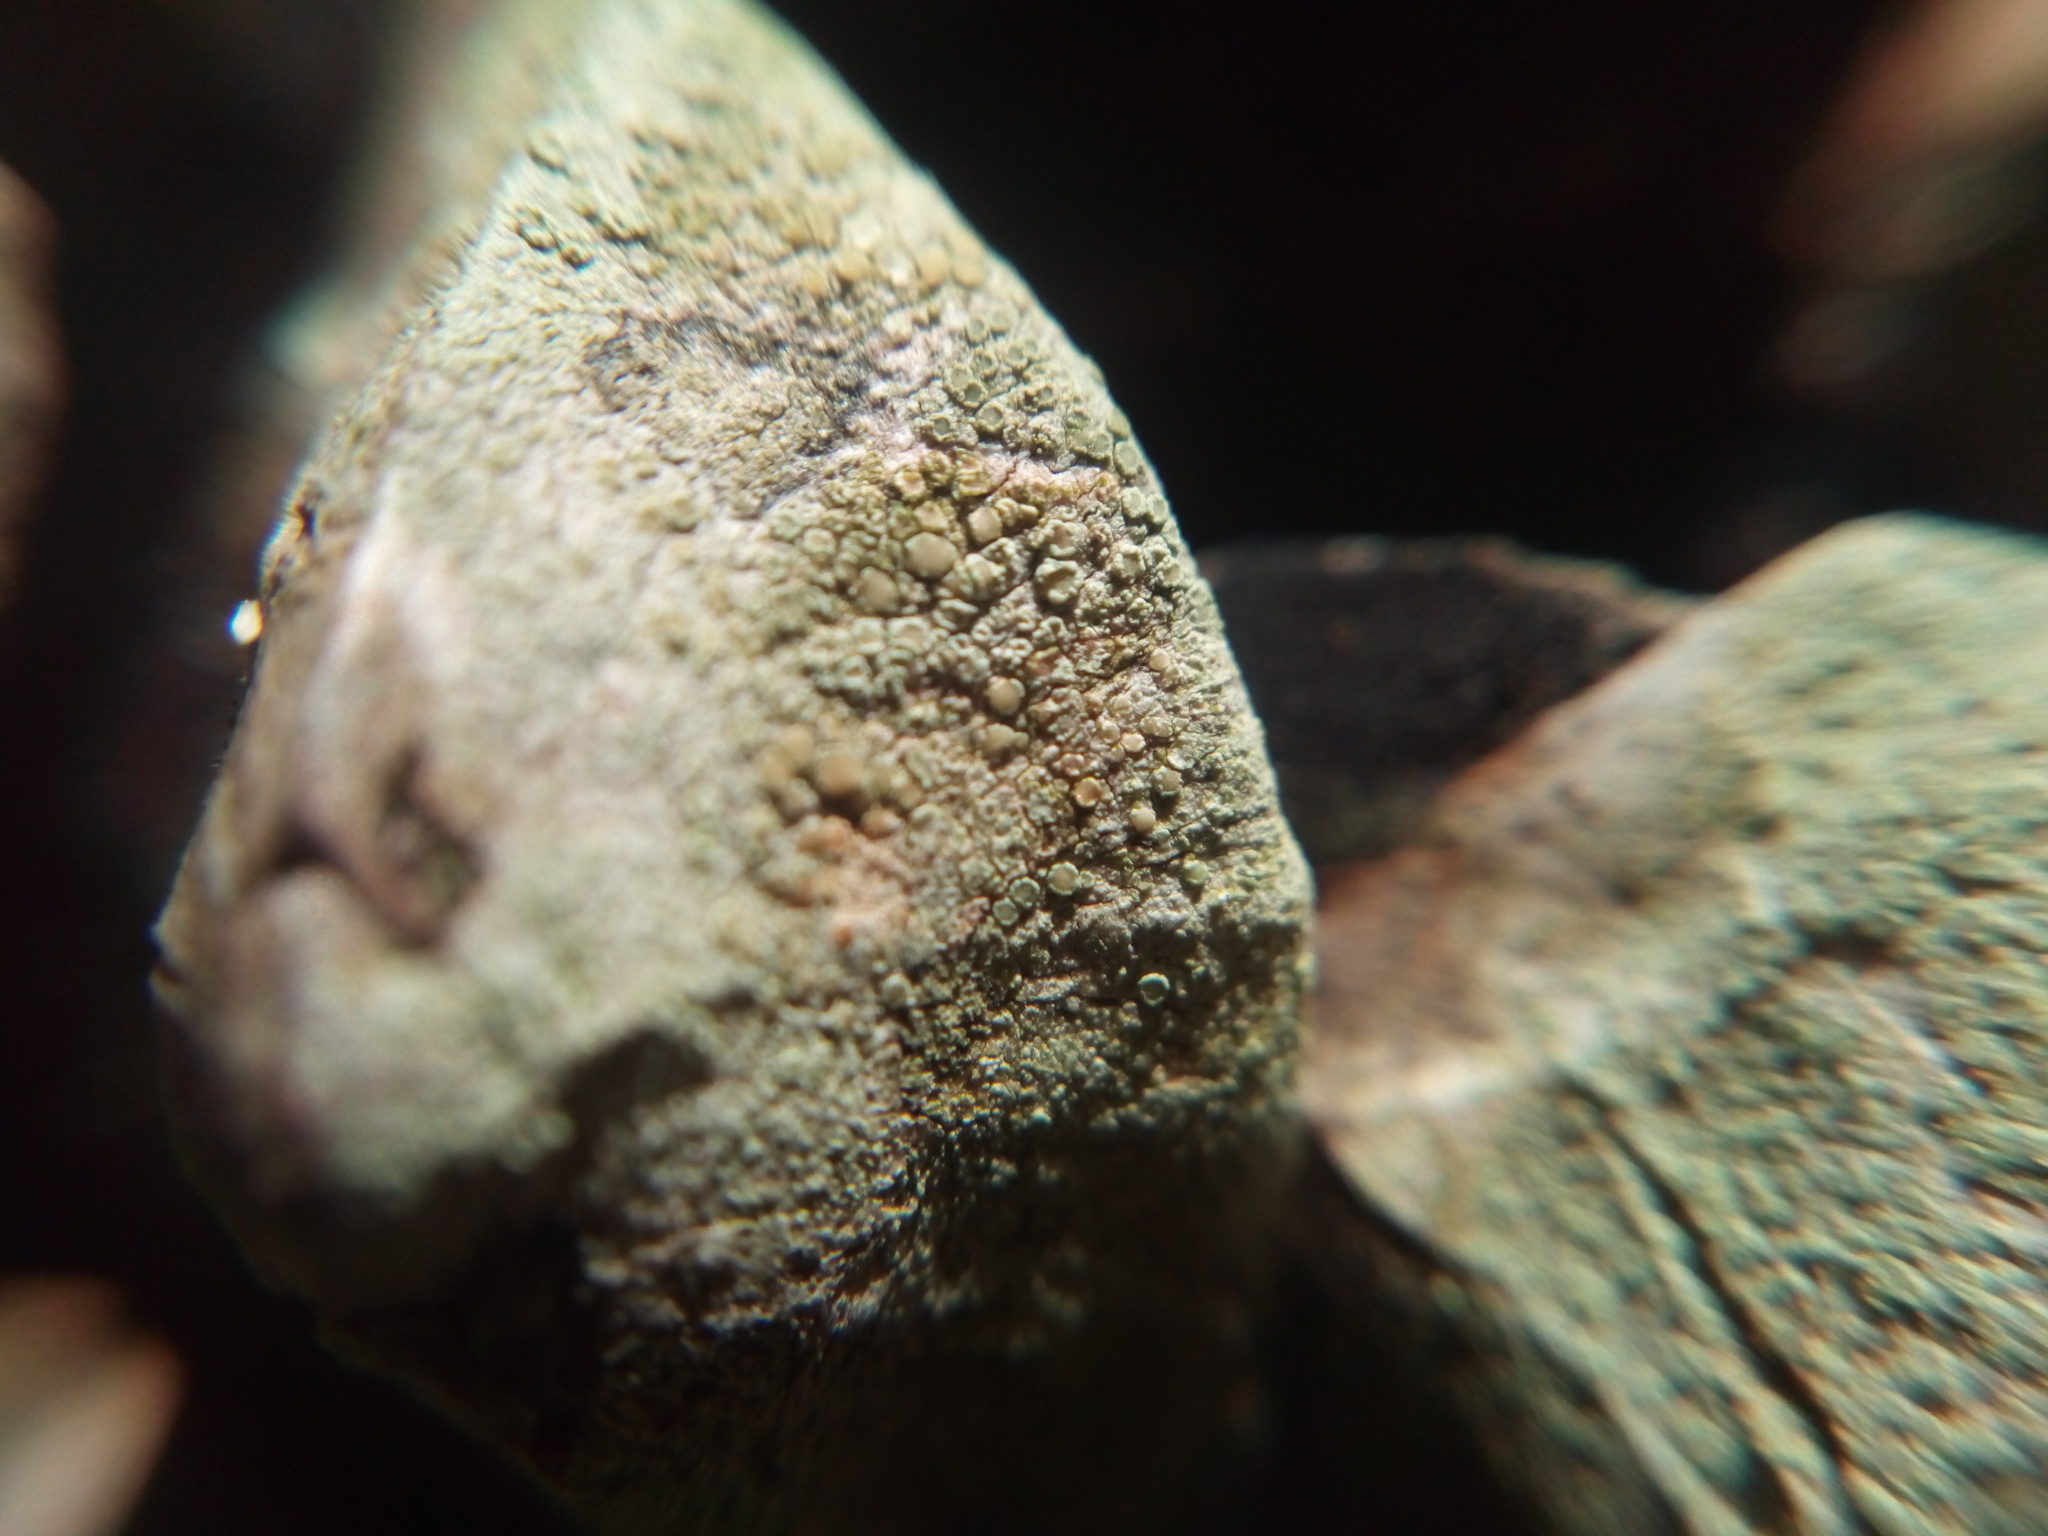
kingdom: Fungi
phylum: Ascomycota
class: Lecanoromycetes
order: Lecanorales
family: Lecanoraceae
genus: Lecanora
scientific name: Lecanora strobilina
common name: Mealy rim-lichen
